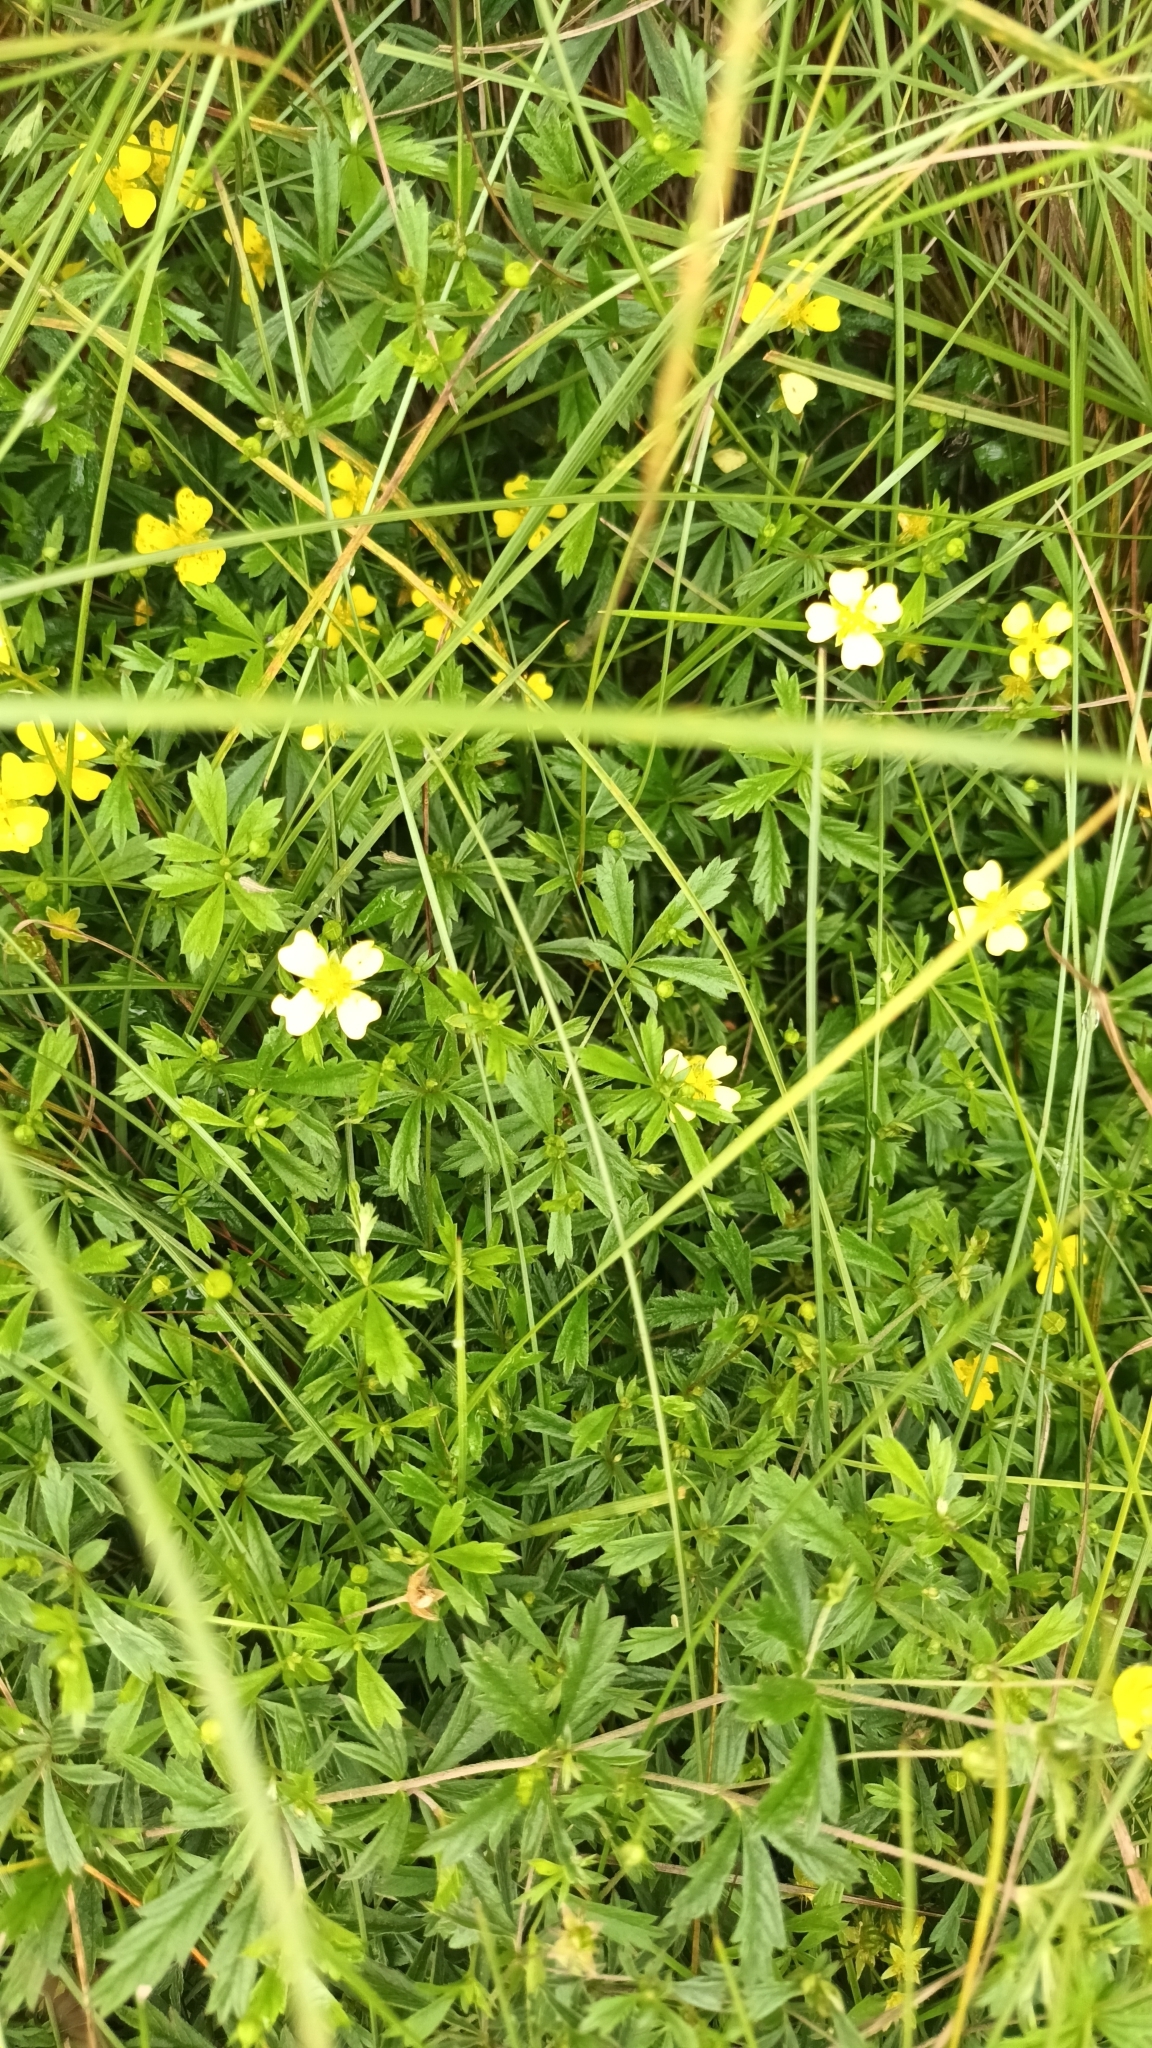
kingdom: Plantae
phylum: Tracheophyta
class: Magnoliopsida
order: Rosales
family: Rosaceae
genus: Potentilla
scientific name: Potentilla erecta
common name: Tormentil
